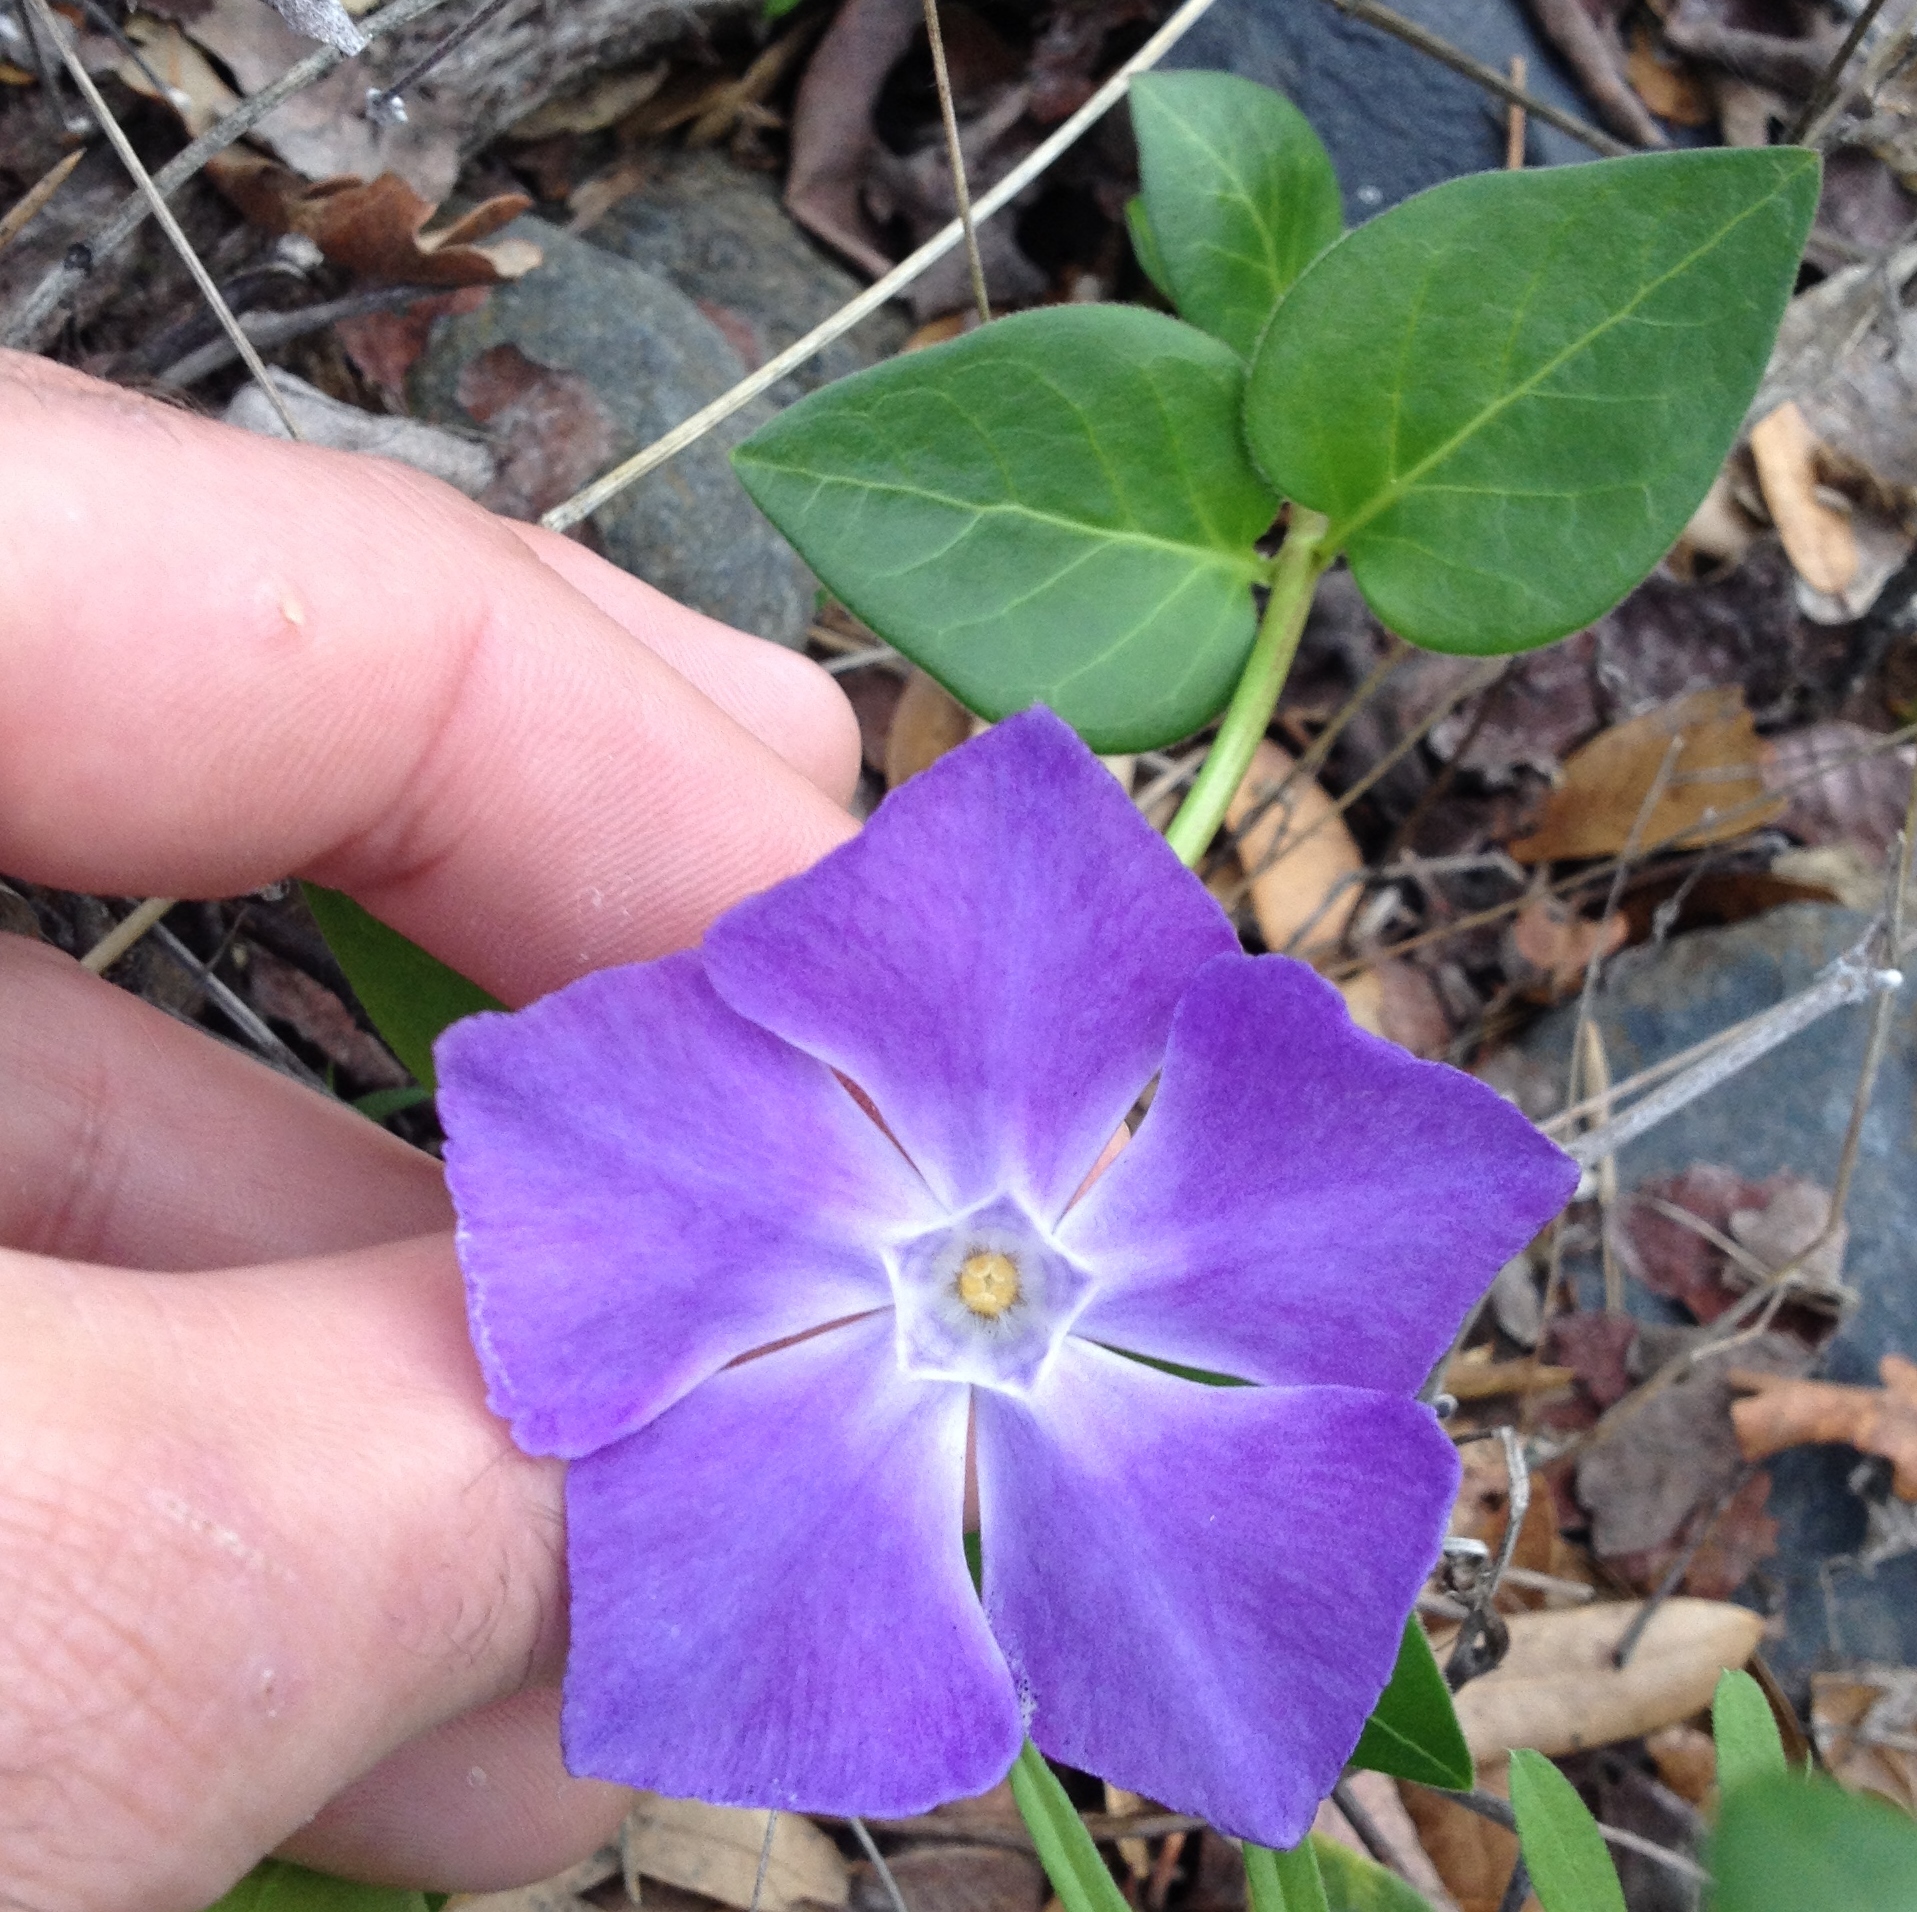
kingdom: Plantae
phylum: Tracheophyta
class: Magnoliopsida
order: Gentianales
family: Apocynaceae
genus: Vinca
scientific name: Vinca major
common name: Greater periwinkle
